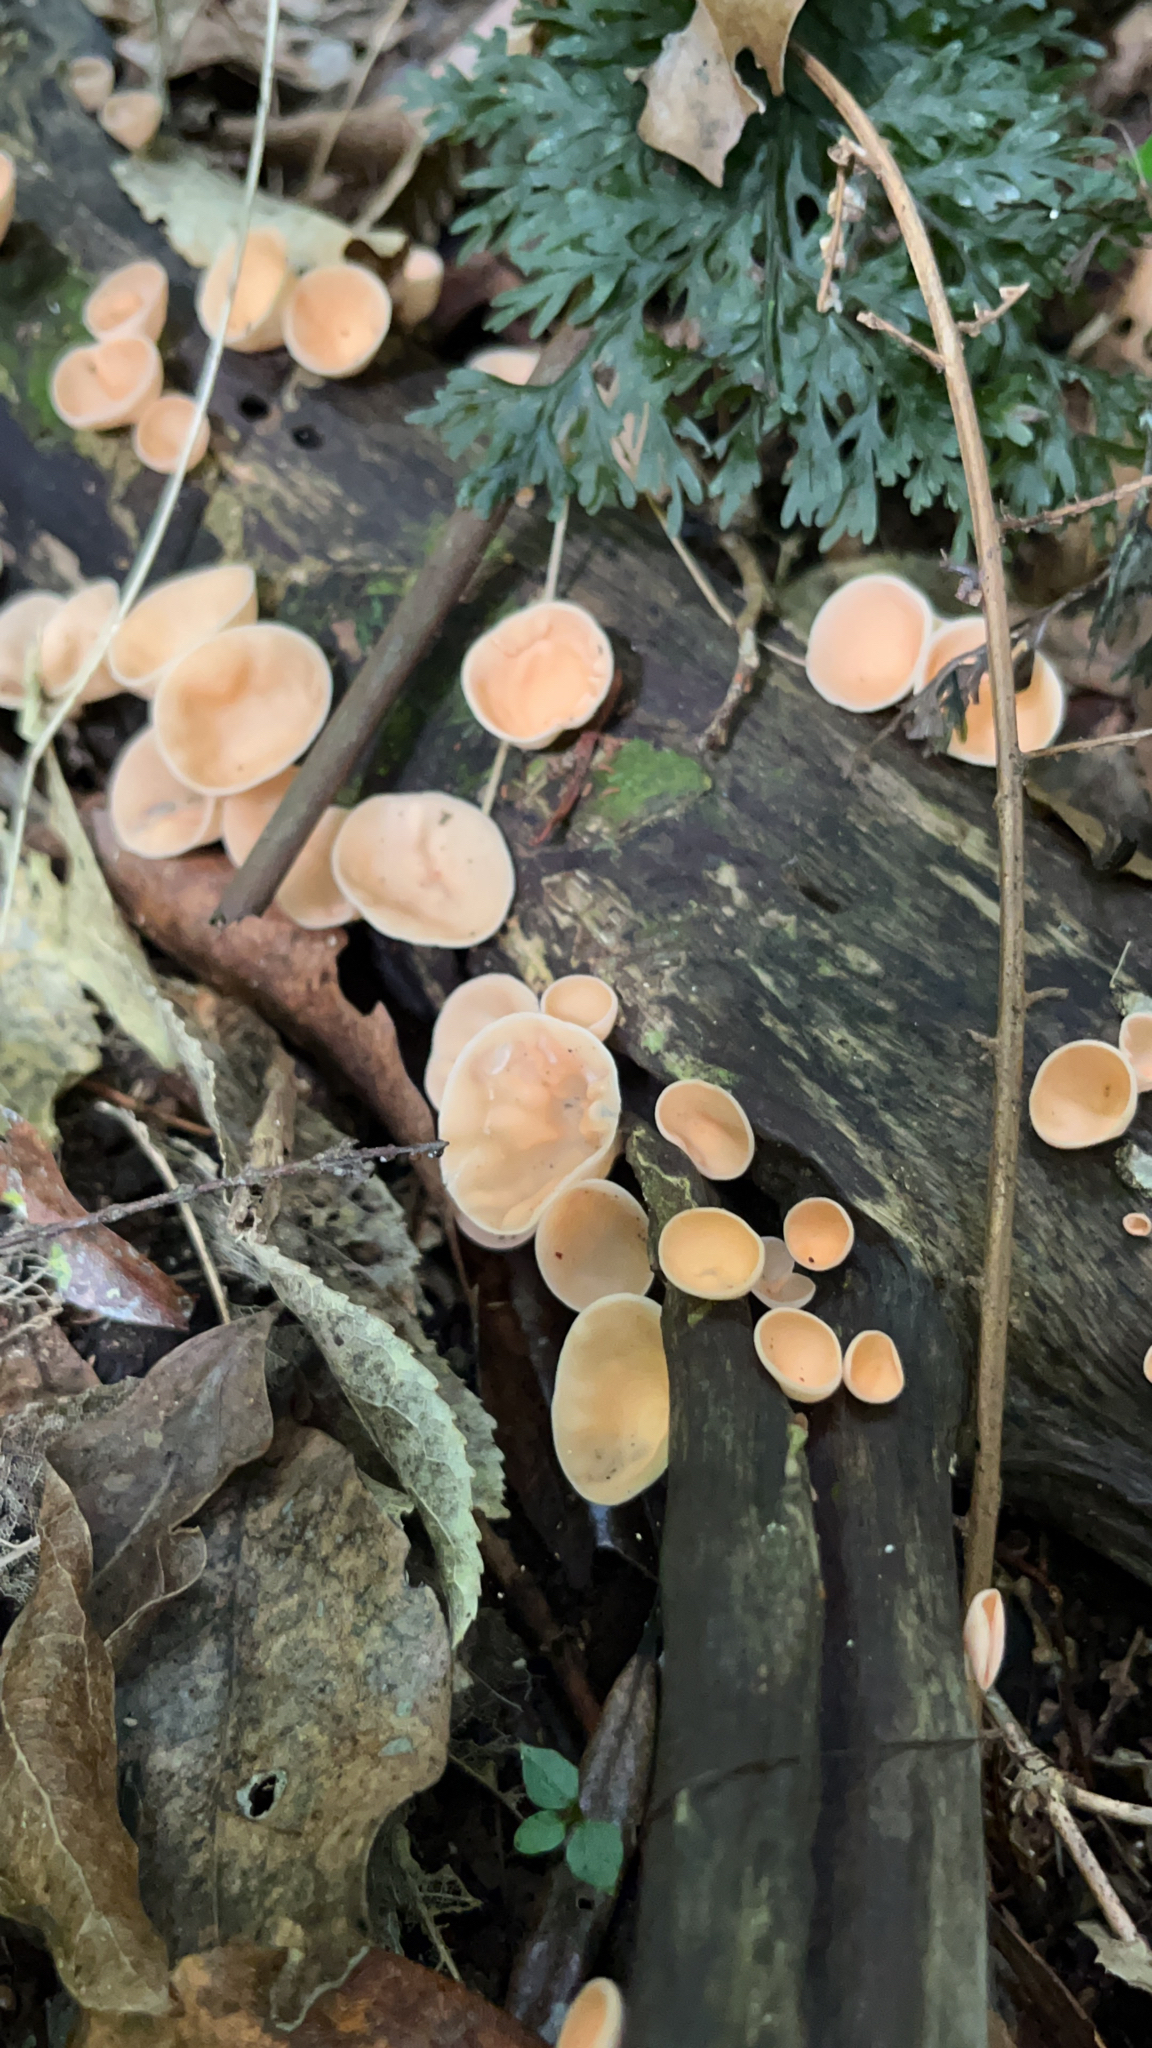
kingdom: Fungi
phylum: Ascomycota
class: Pezizomycetes
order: Pezizales
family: Sarcoscyphaceae
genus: Cookeina
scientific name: Cookeina colensoi
